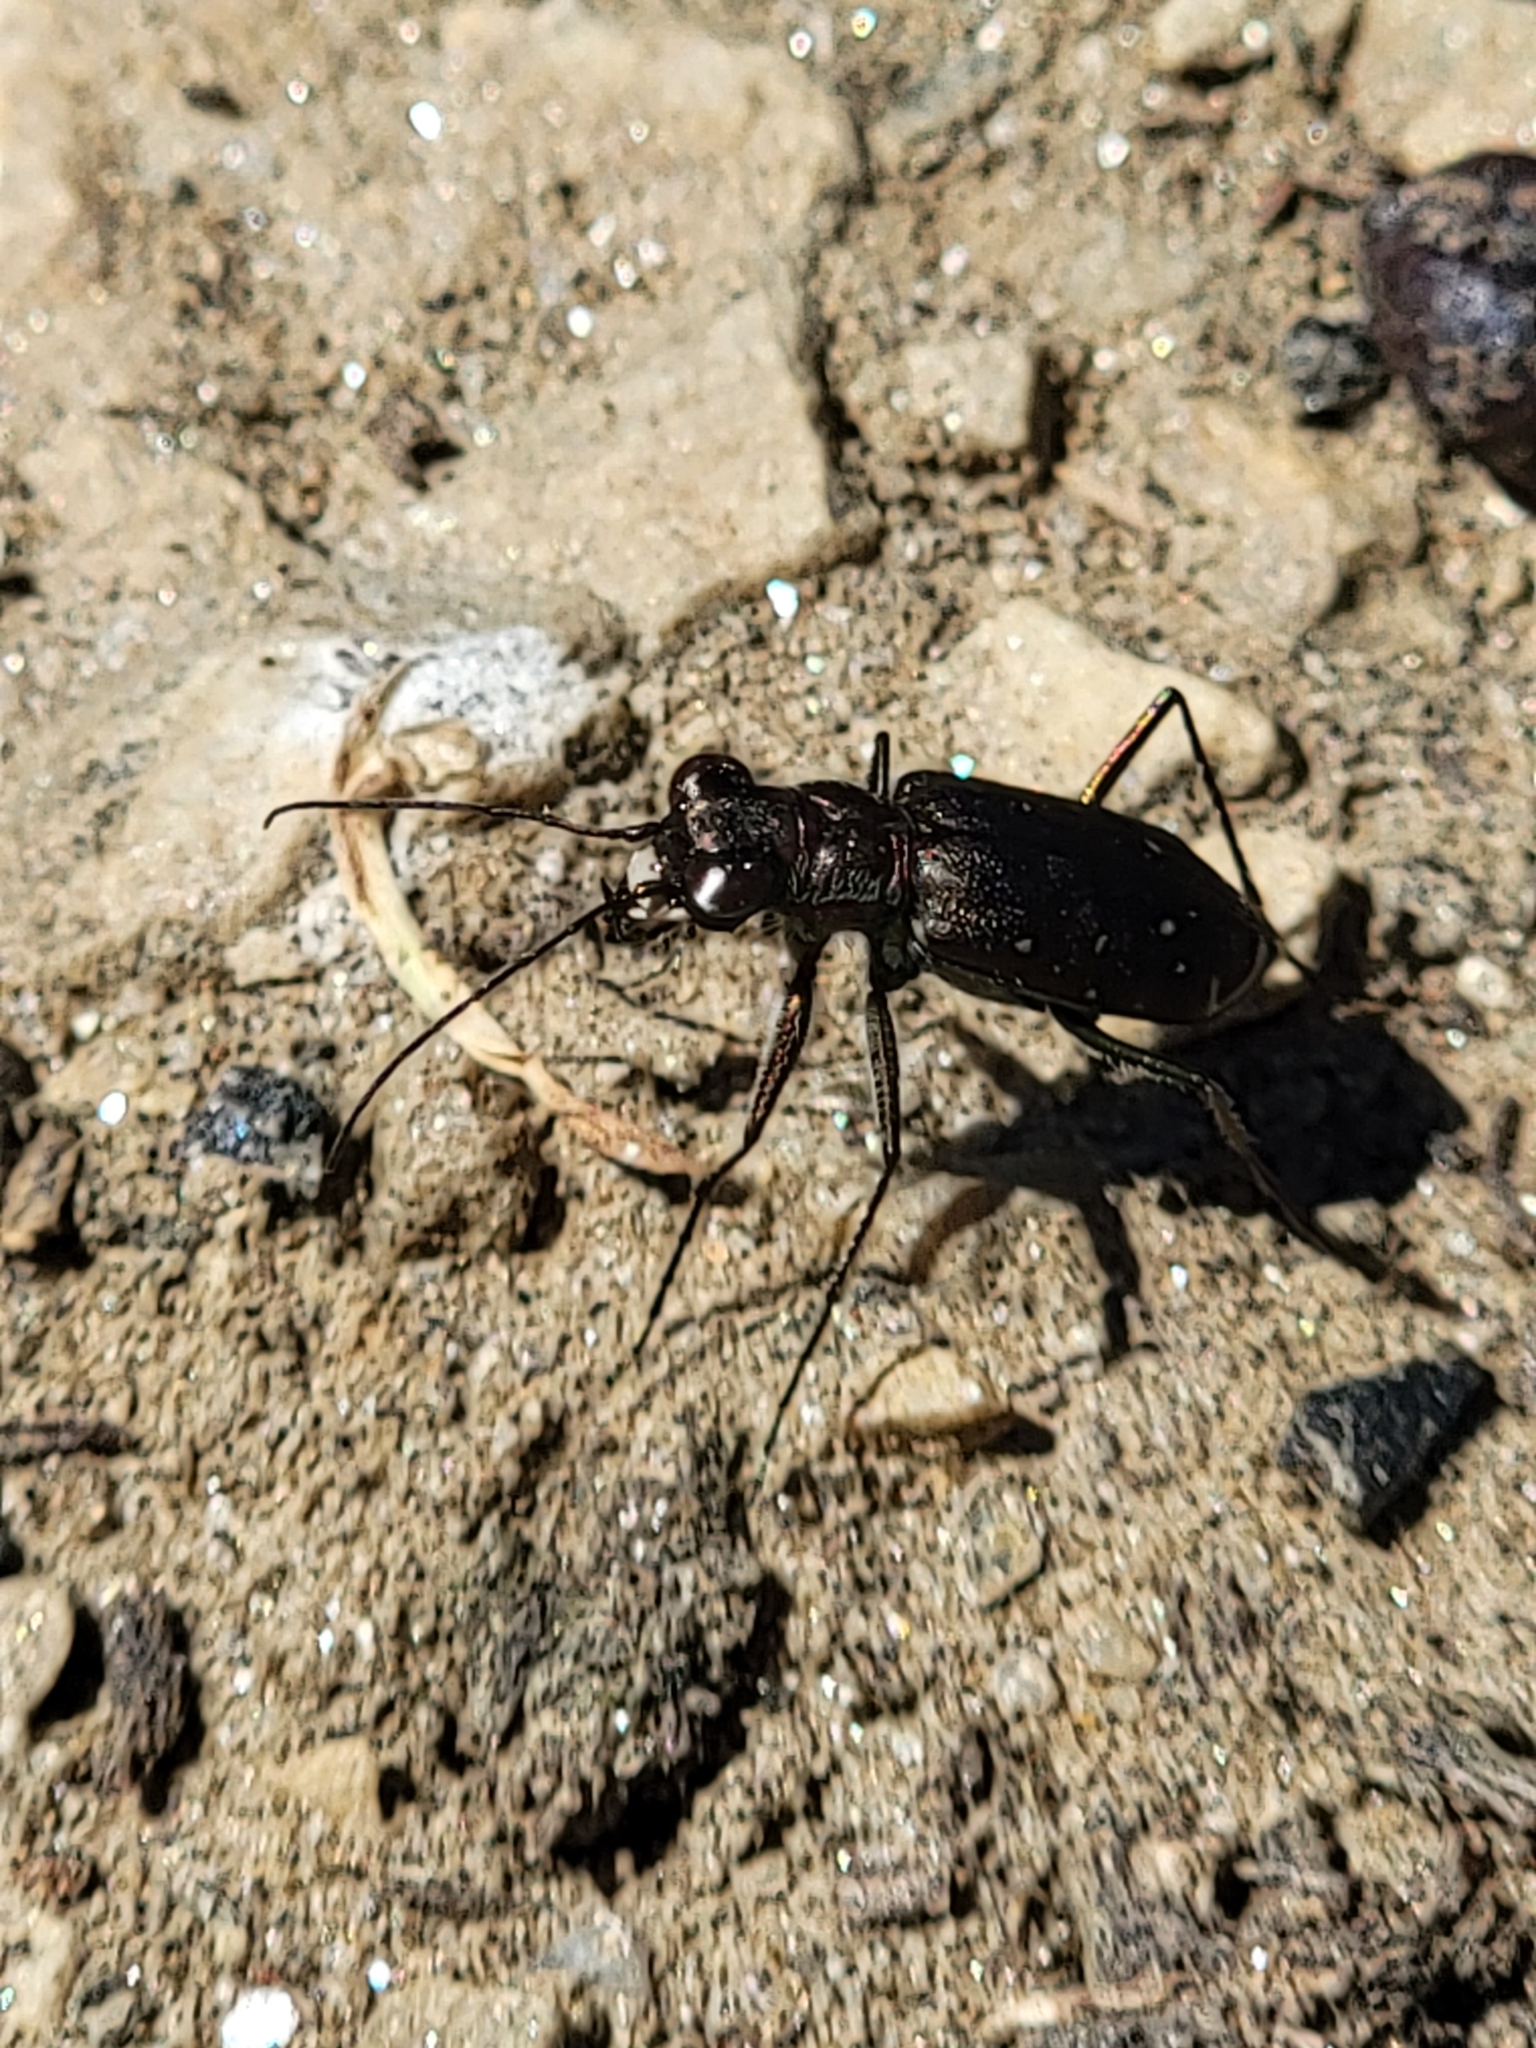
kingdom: Animalia
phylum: Arthropoda
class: Insecta
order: Coleoptera
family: Carabidae
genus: Cicindela
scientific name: Cicindela punctulata
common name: Punctured tiger beetle
